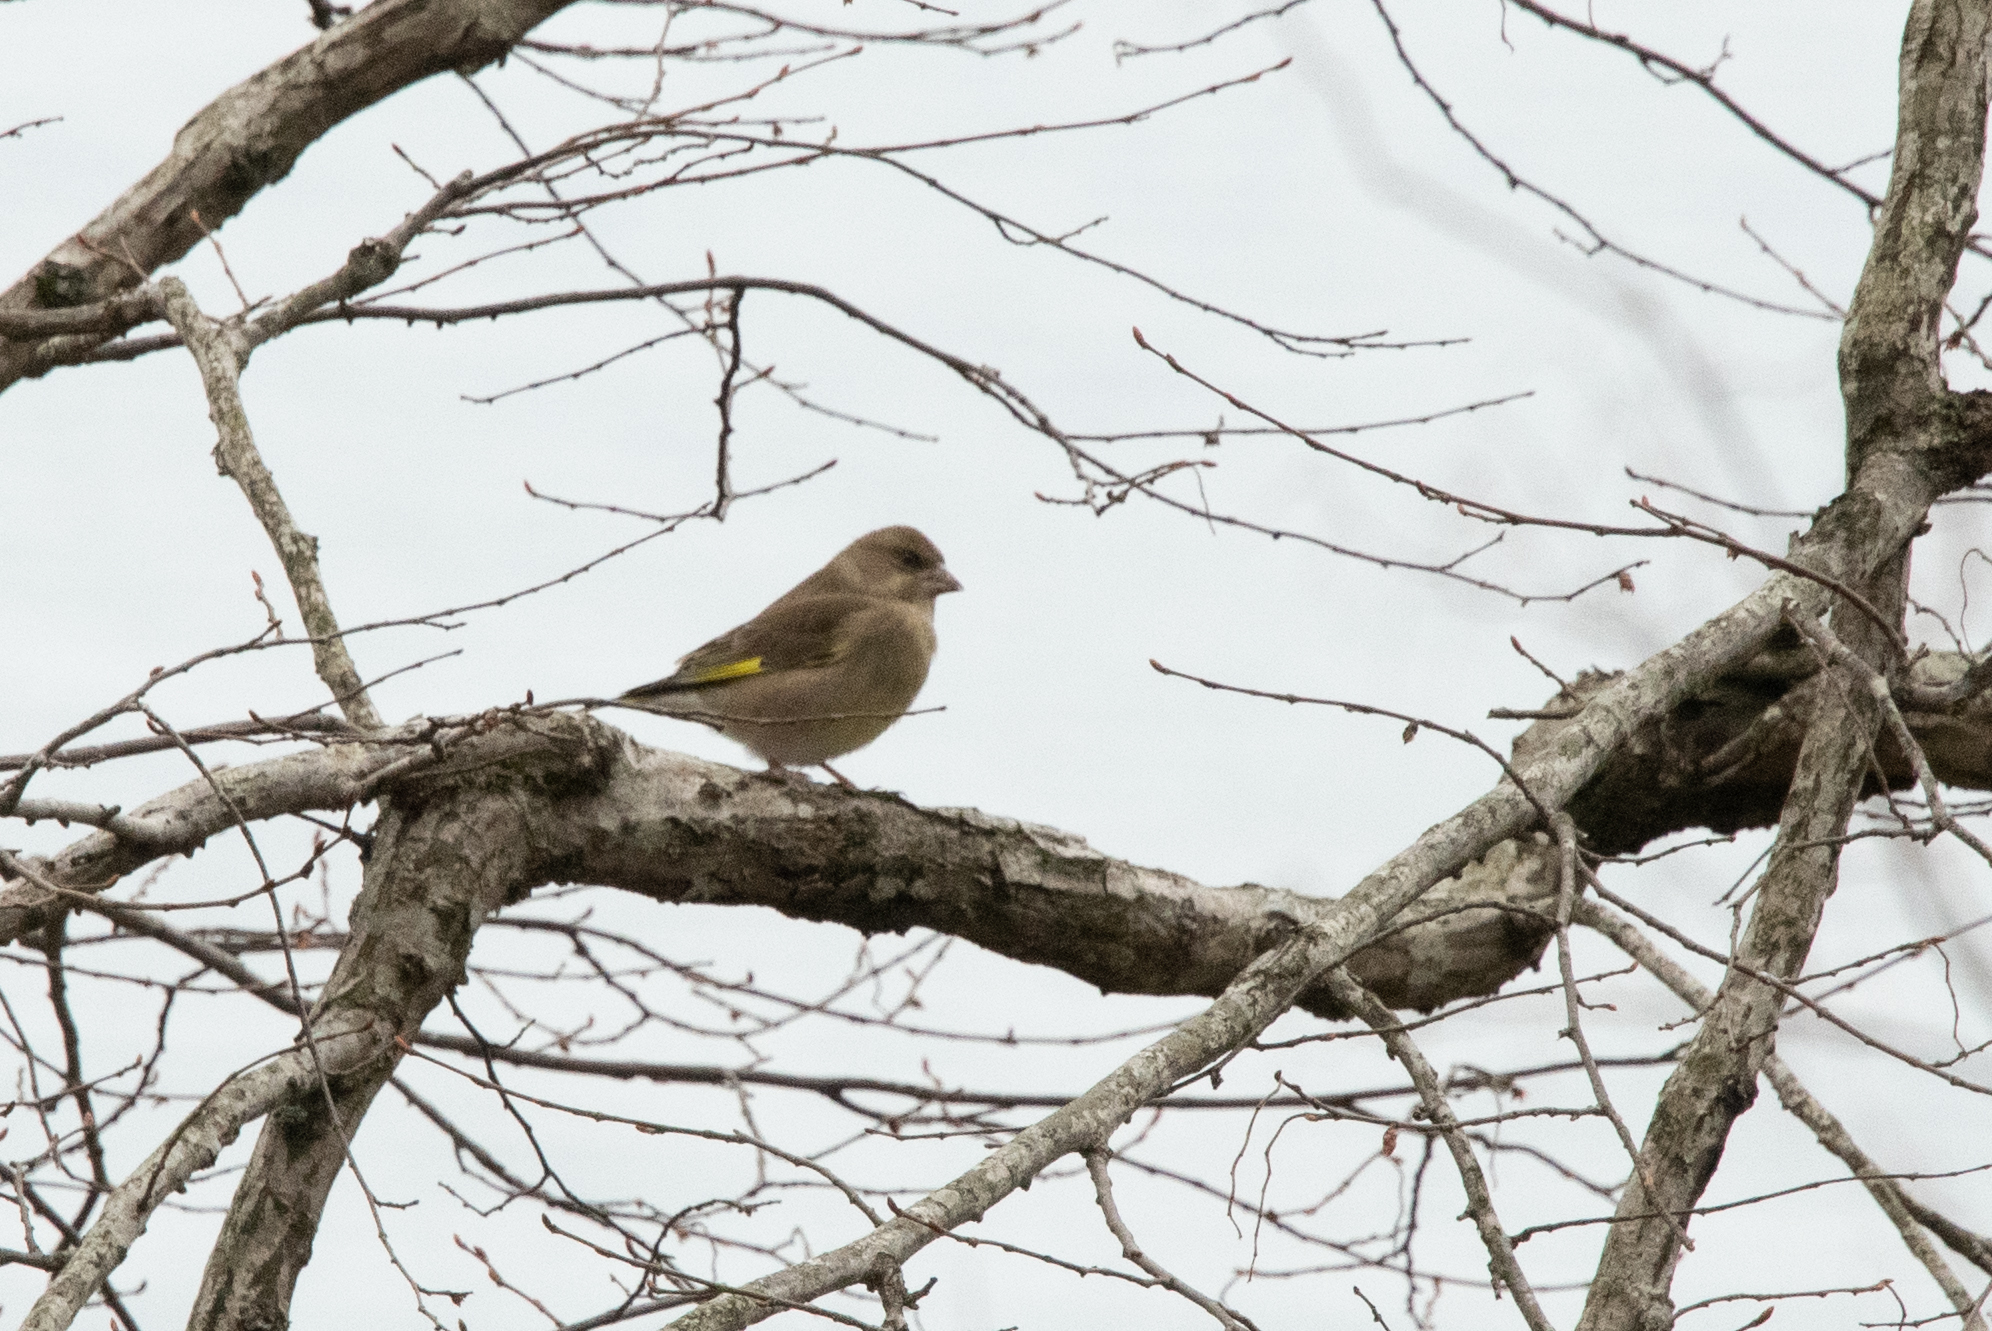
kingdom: Plantae
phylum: Tracheophyta
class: Liliopsida
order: Poales
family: Poaceae
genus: Chloris
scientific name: Chloris chloris
